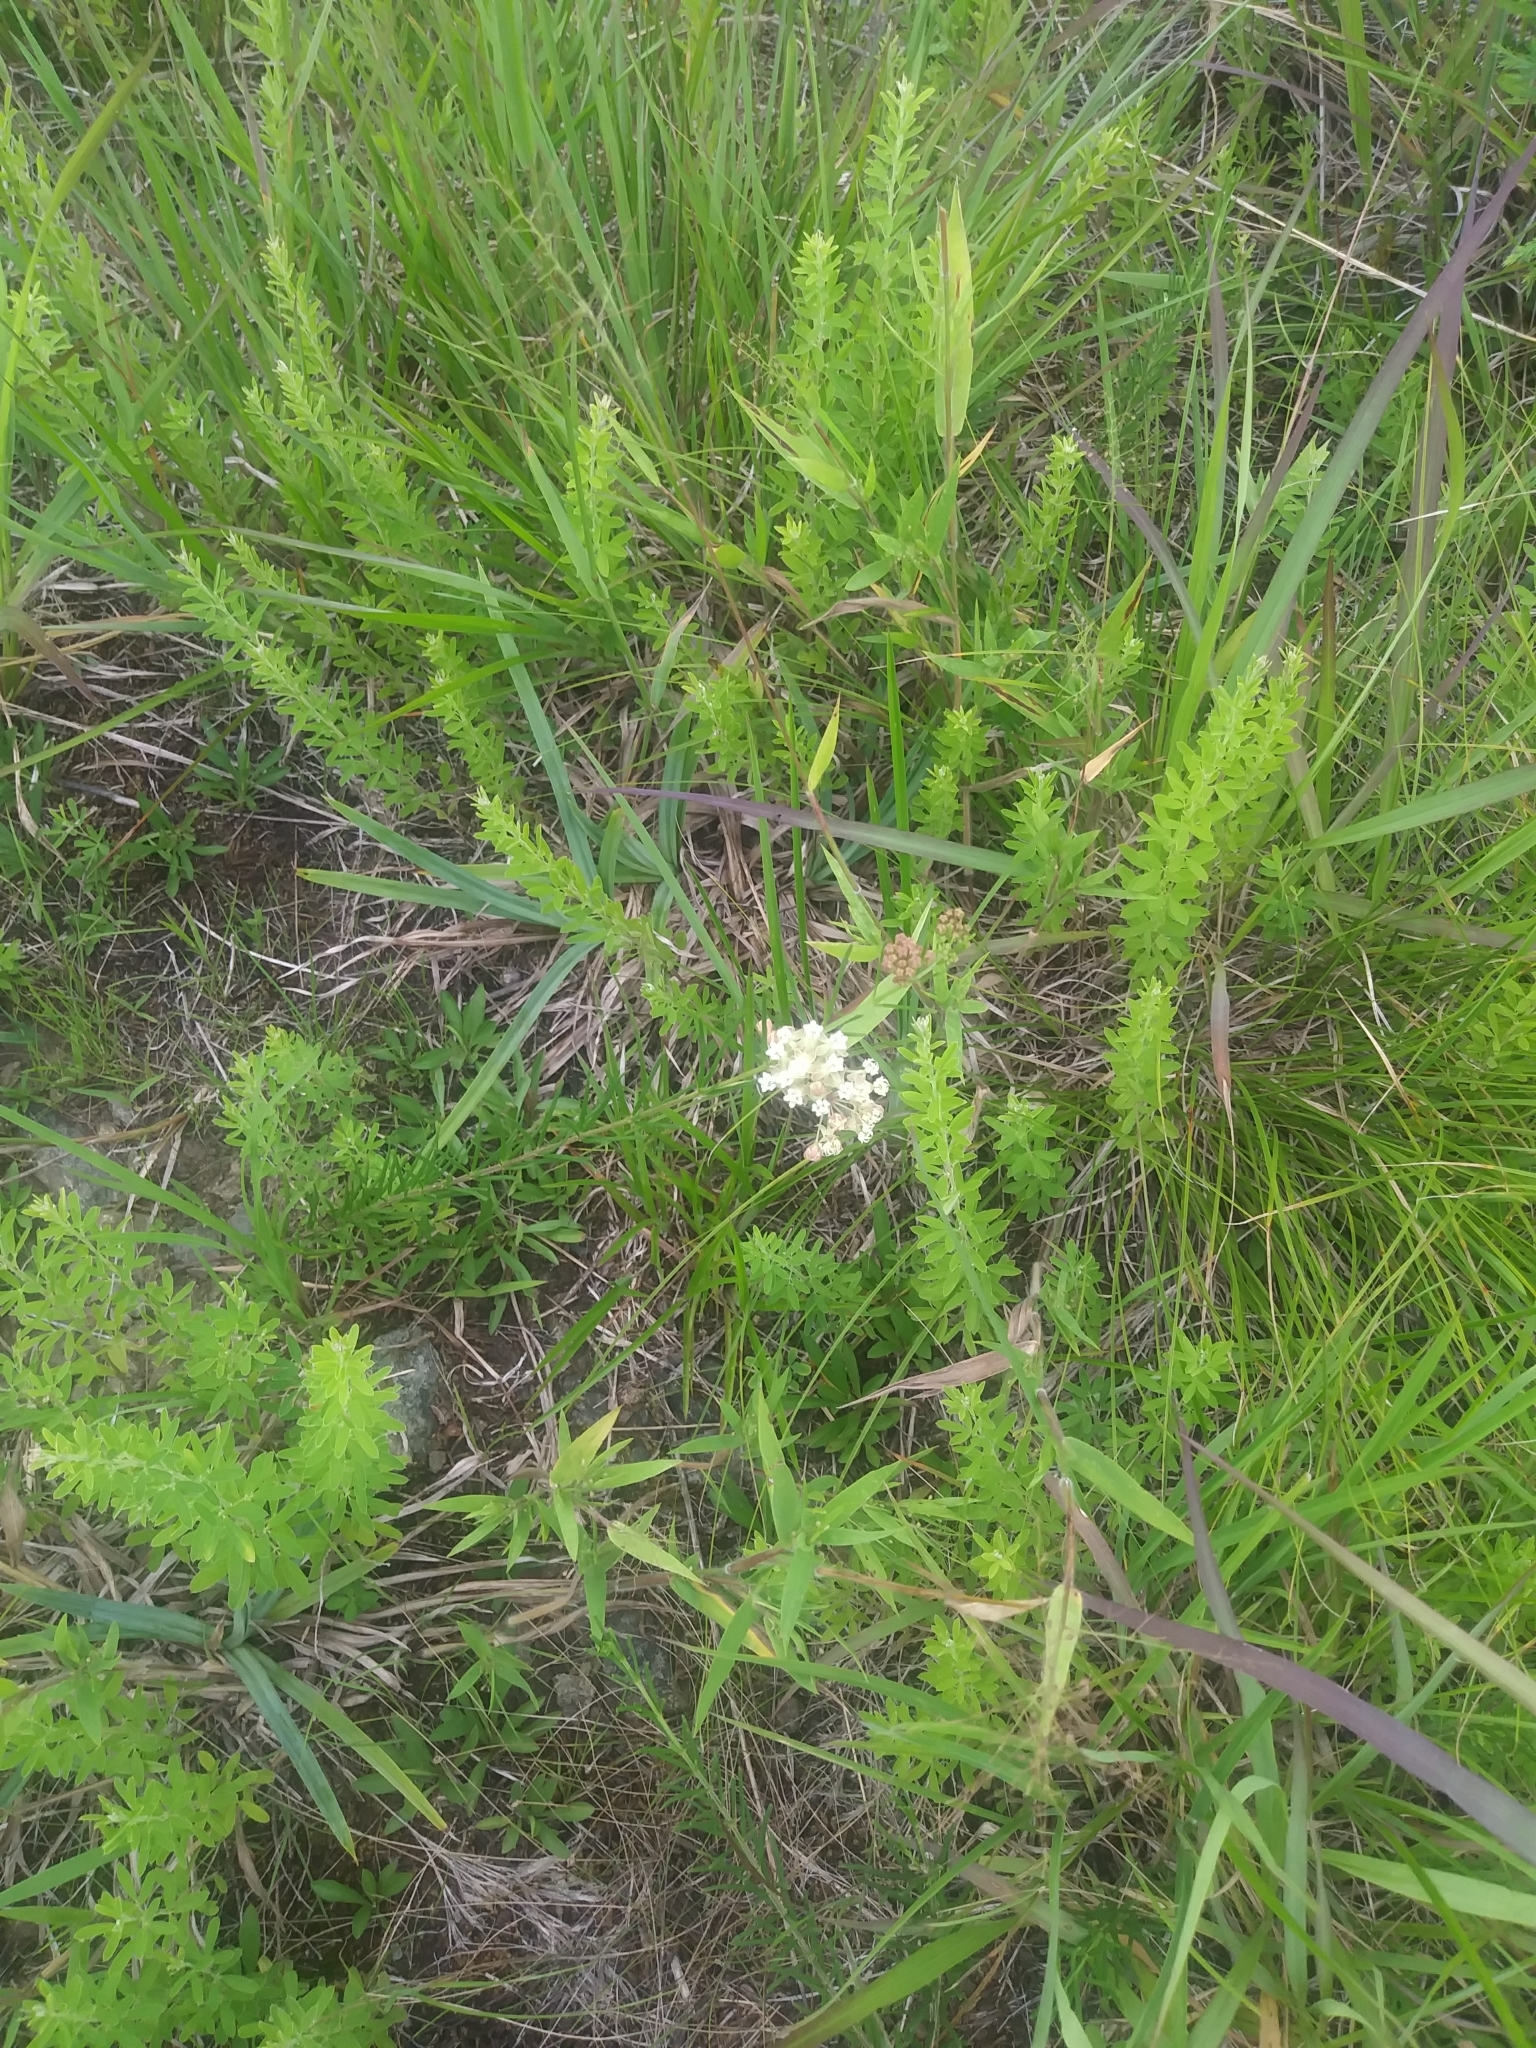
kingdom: Plantae
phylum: Tracheophyta
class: Magnoliopsida
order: Gentianales
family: Apocynaceae
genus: Asclepias
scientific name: Asclepias verticillata
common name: Eastern whorled milkweed
